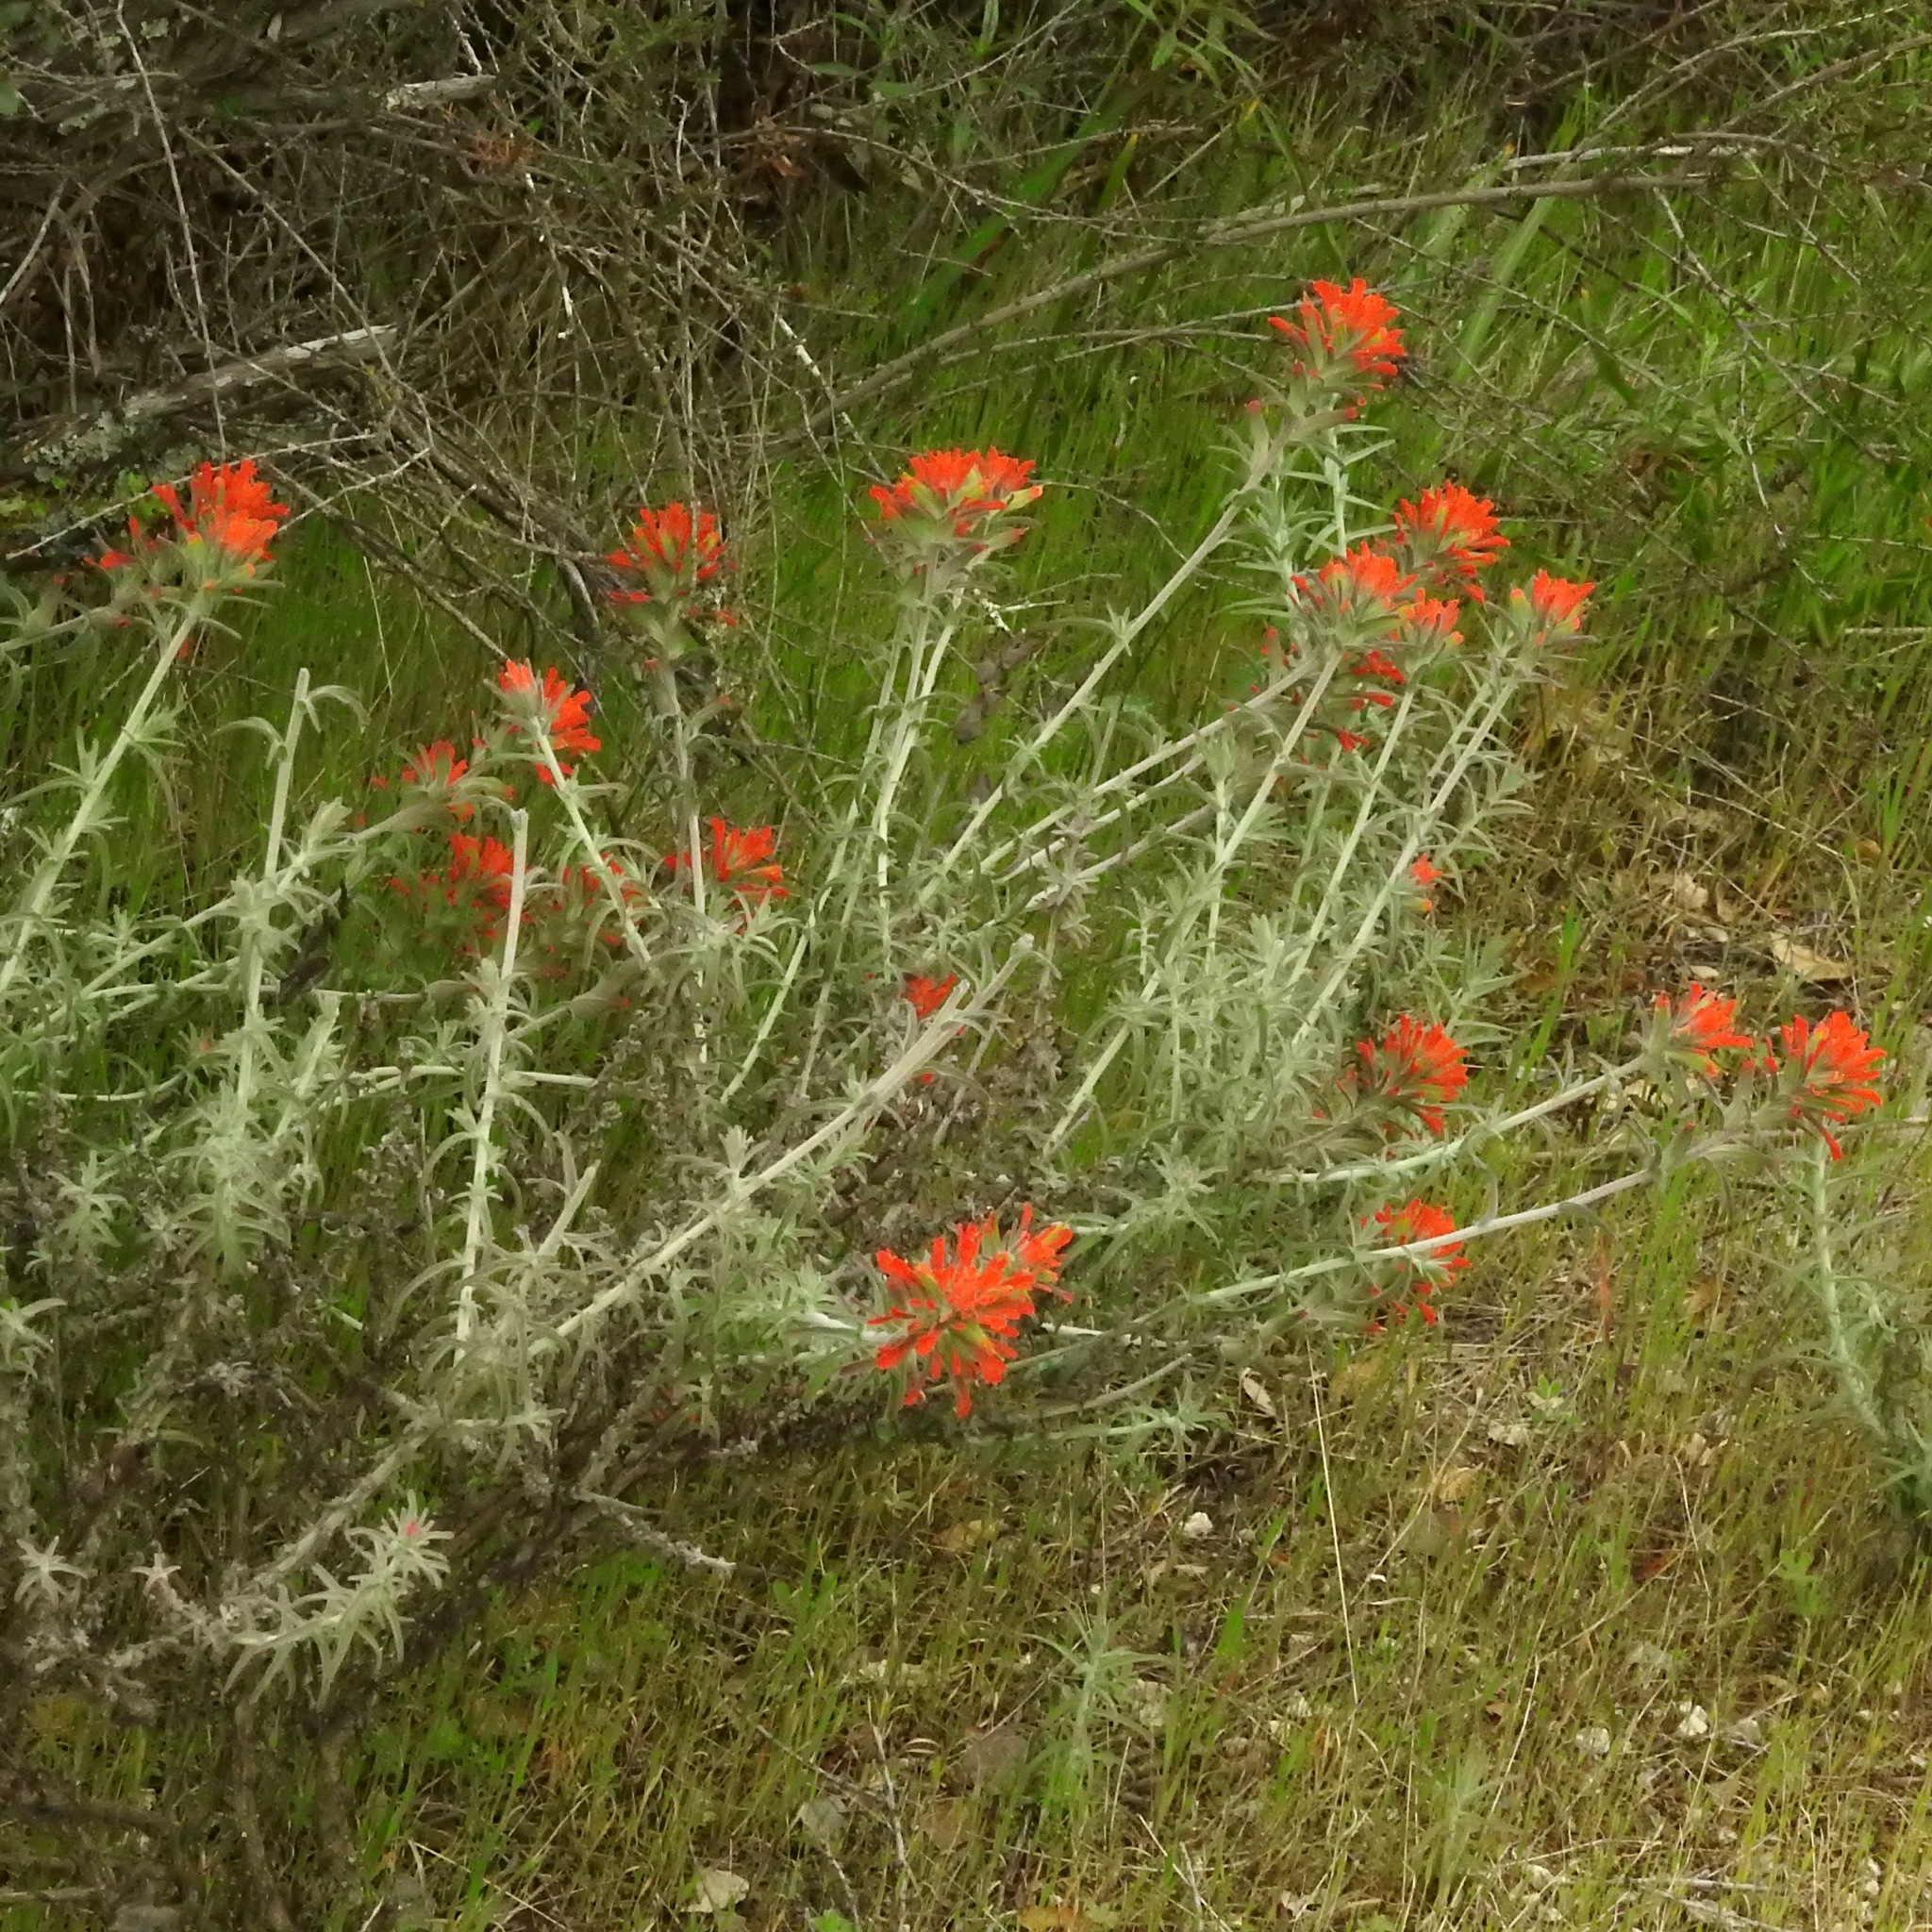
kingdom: Plantae
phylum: Tracheophyta
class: Magnoliopsida
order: Lamiales
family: Orobanchaceae
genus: Castilleja
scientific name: Castilleja foliolosa
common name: Woolly indian paintbrush
